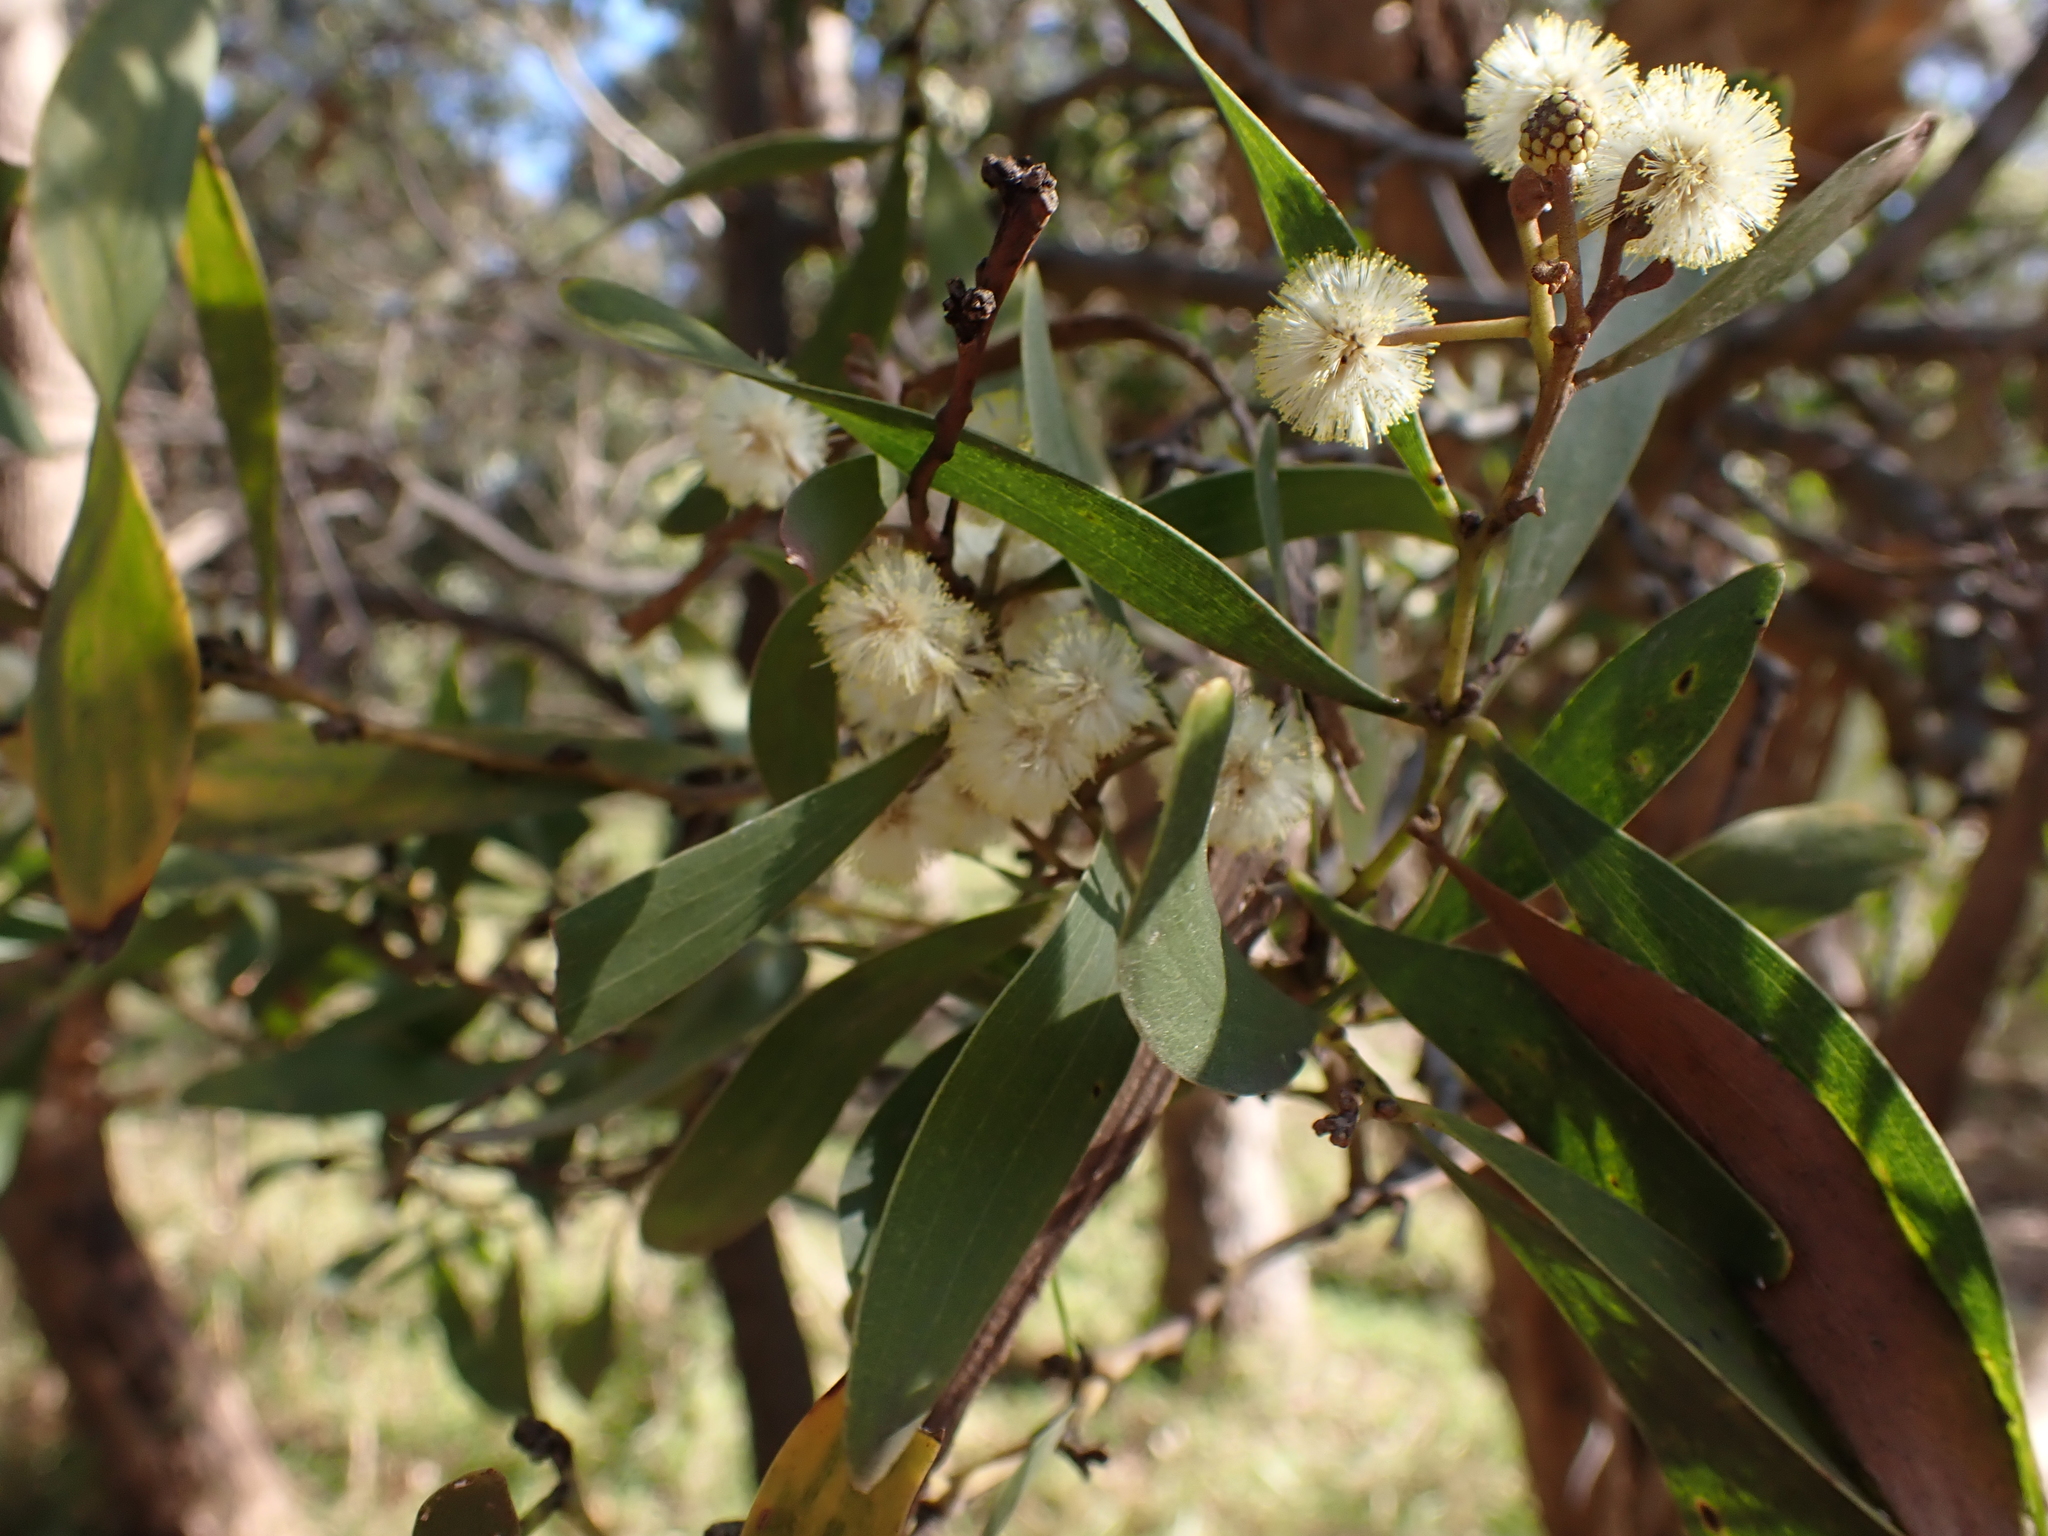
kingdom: Plantae
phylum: Tracheophyta
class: Magnoliopsida
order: Fabales
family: Fabaceae
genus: Acacia
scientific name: Acacia melanoxylon
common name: Blackwood
